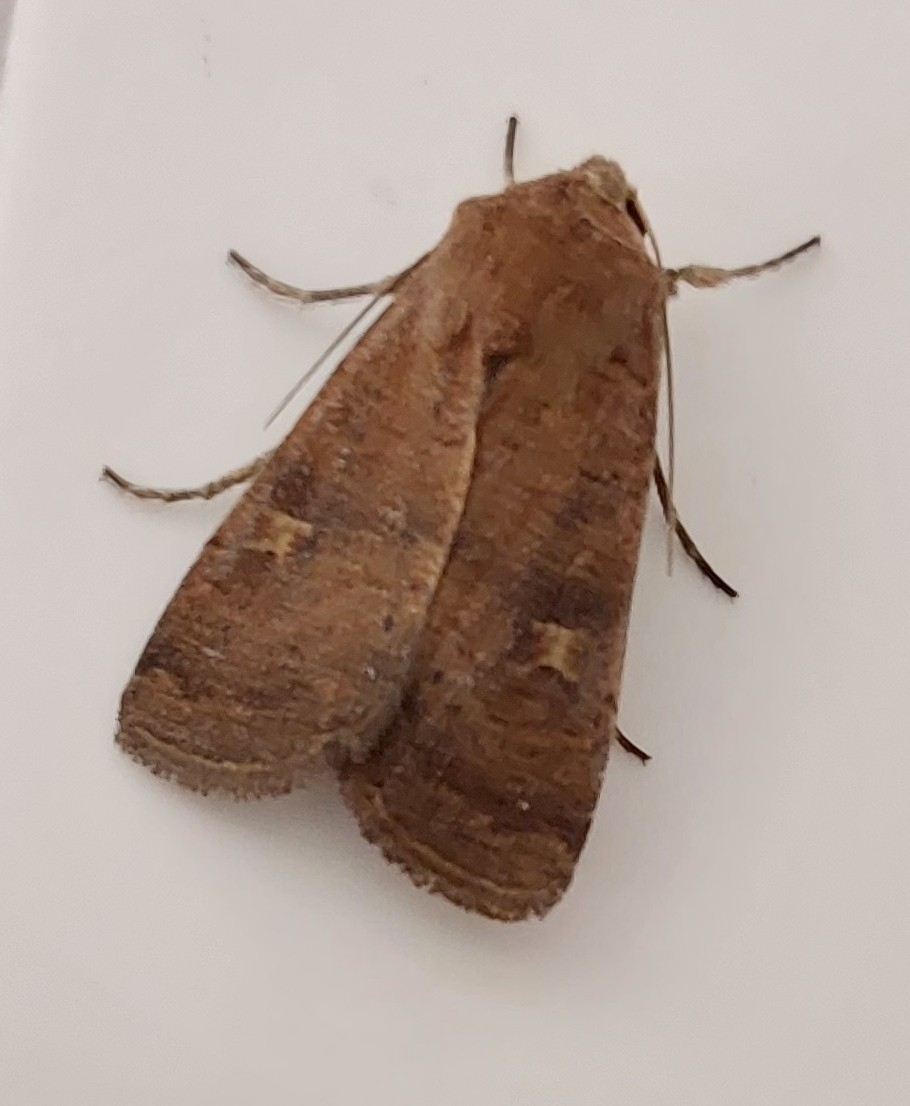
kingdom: Animalia
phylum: Arthropoda
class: Insecta
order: Lepidoptera
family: Noctuidae
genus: Xestia
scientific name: Xestia xanthographa
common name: Square-spot rustic
